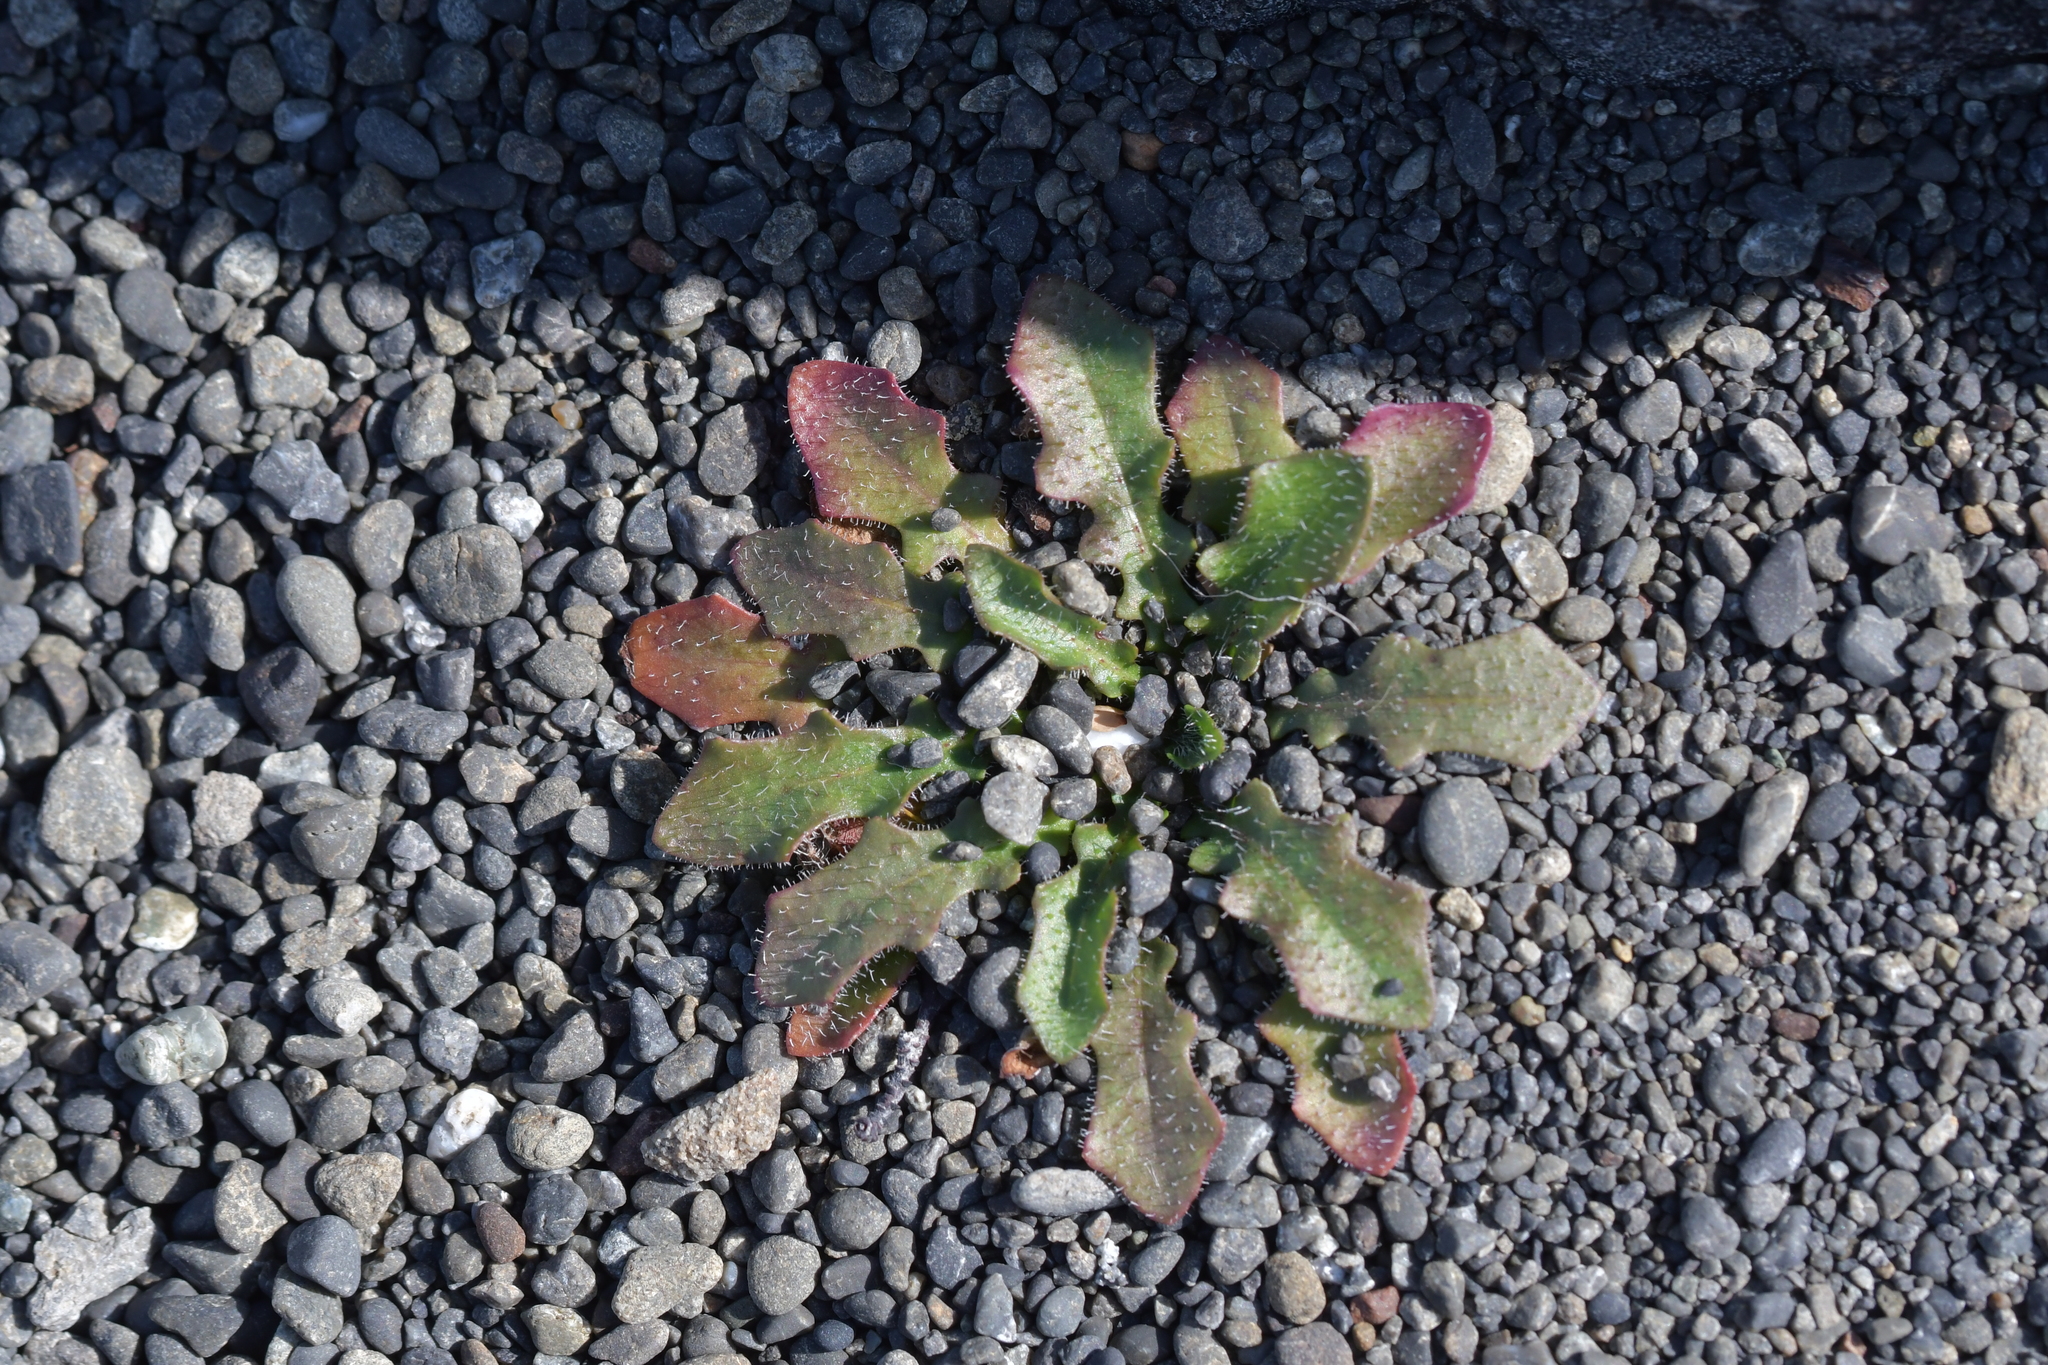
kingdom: Plantae
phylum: Tracheophyta
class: Magnoliopsida
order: Asterales
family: Asteraceae
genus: Hypochaeris
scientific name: Hypochaeris radicata
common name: Flatweed
